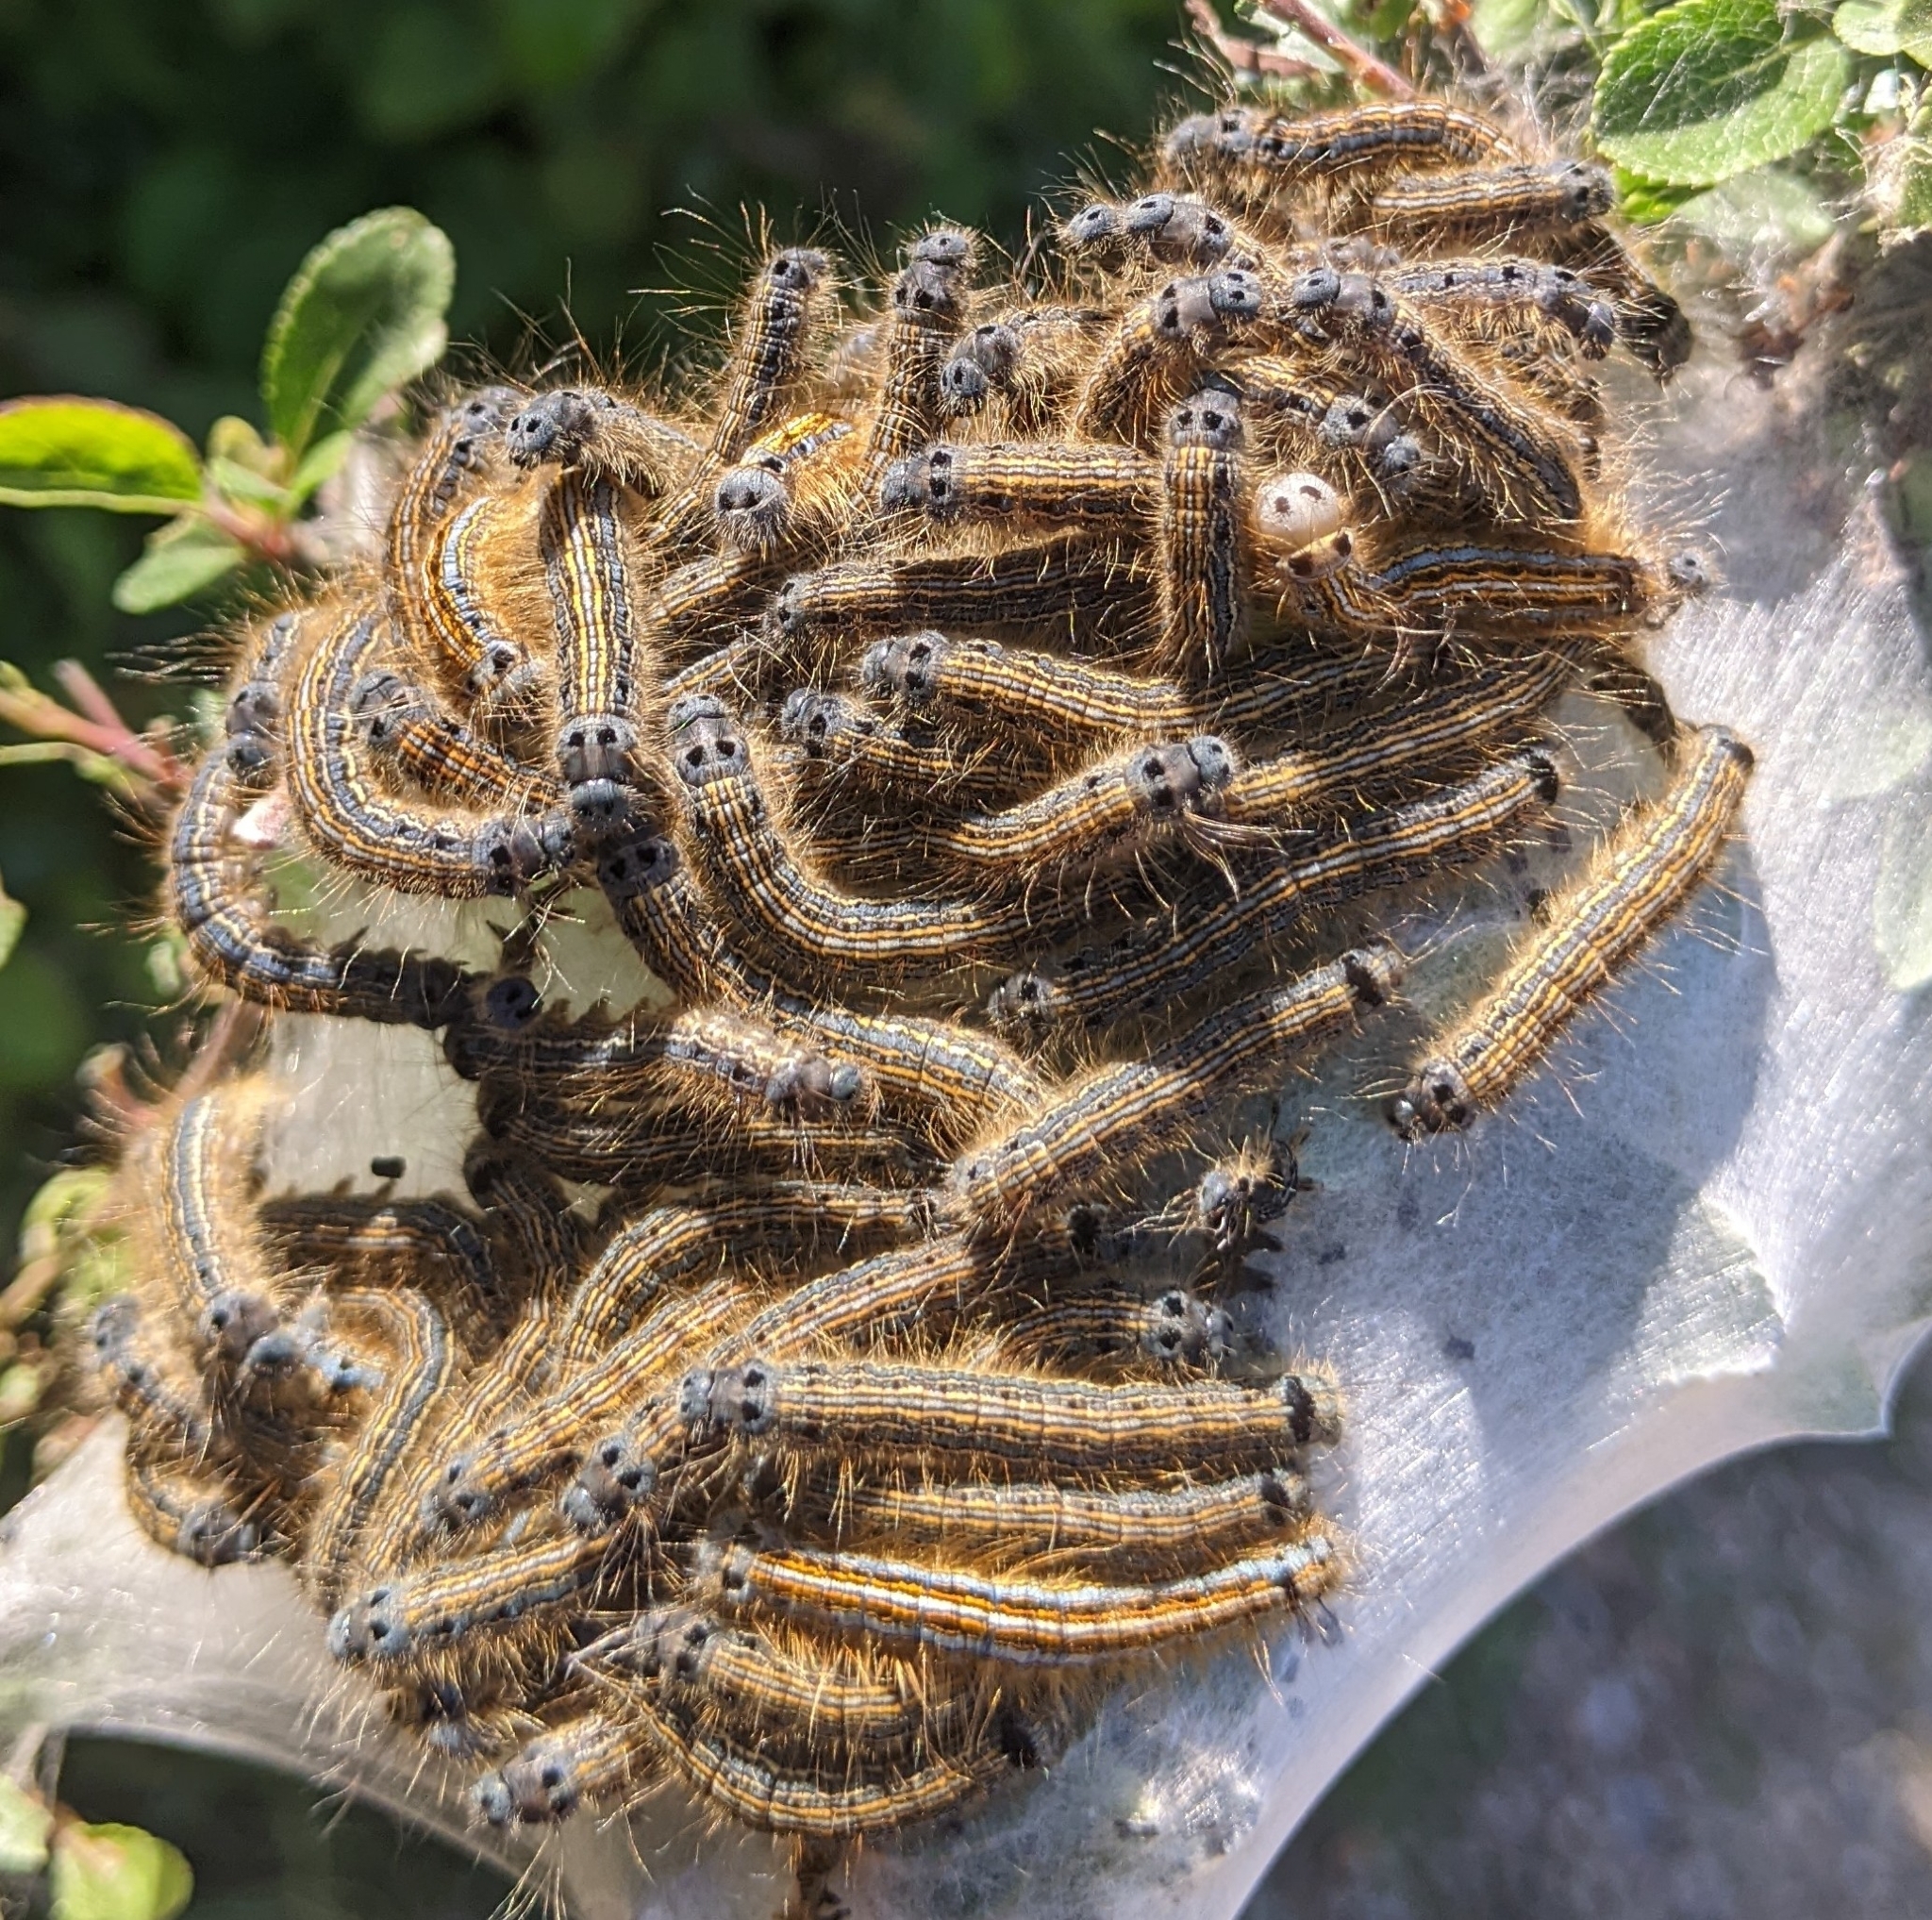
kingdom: Animalia
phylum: Arthropoda
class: Insecta
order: Lepidoptera
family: Lasiocampidae
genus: Malacosoma
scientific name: Malacosoma neustria
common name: The lackey
